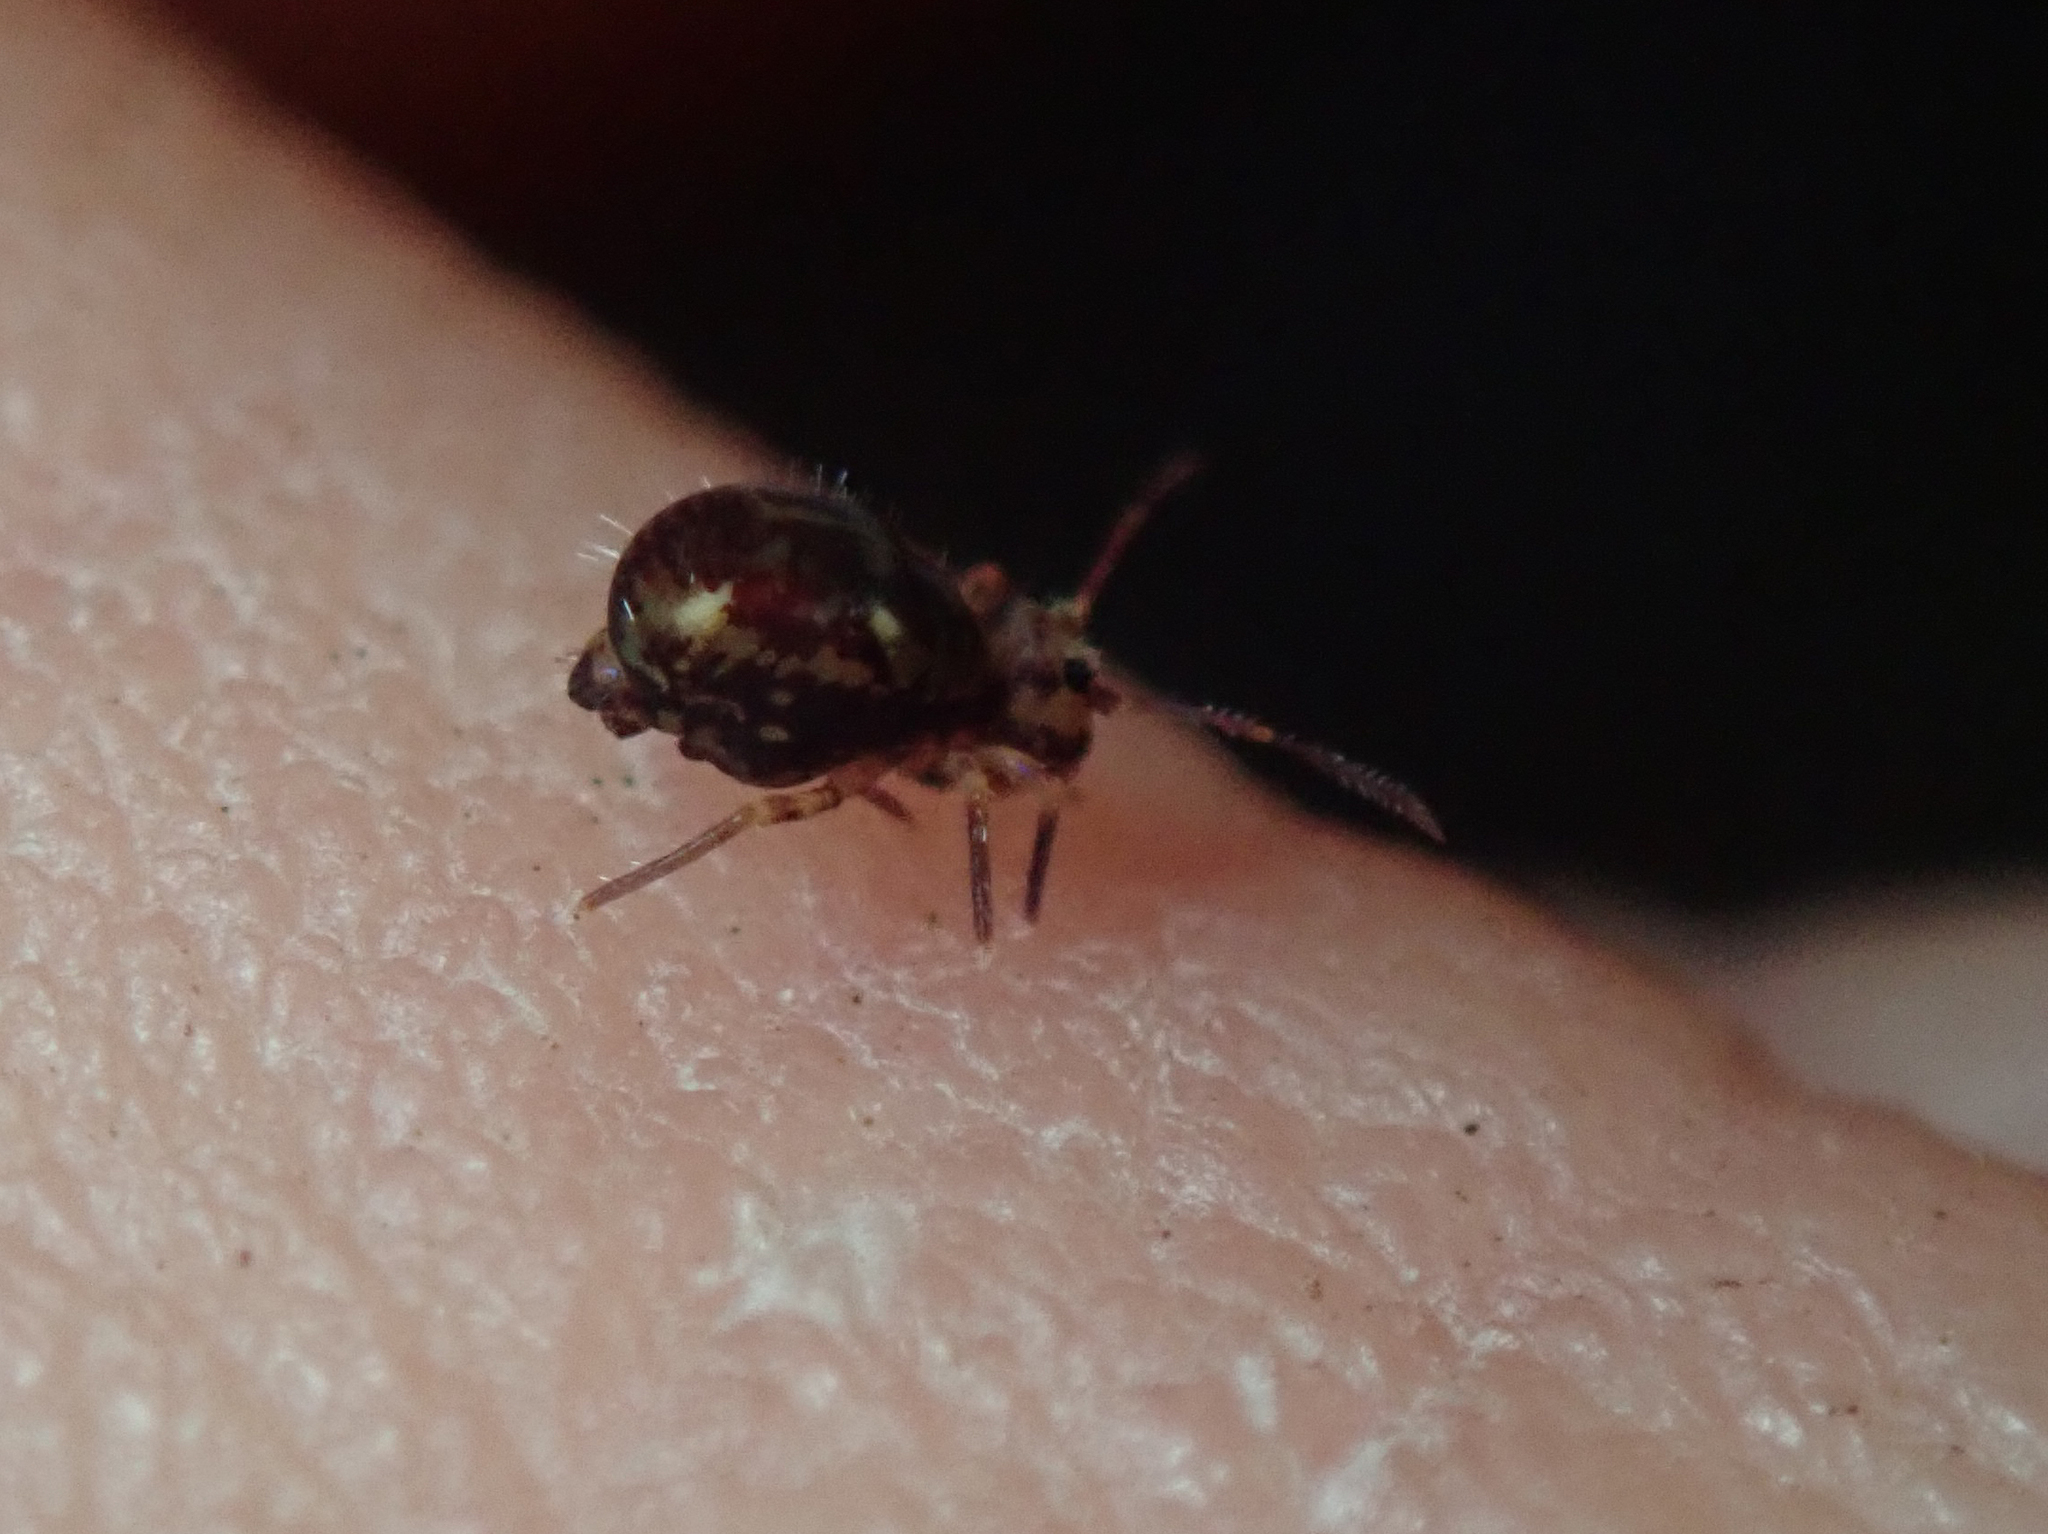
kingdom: Animalia
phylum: Arthropoda
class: Collembola
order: Symphypleona
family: Dicyrtomidae
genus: Dicyrtomina
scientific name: Dicyrtomina saundersi
